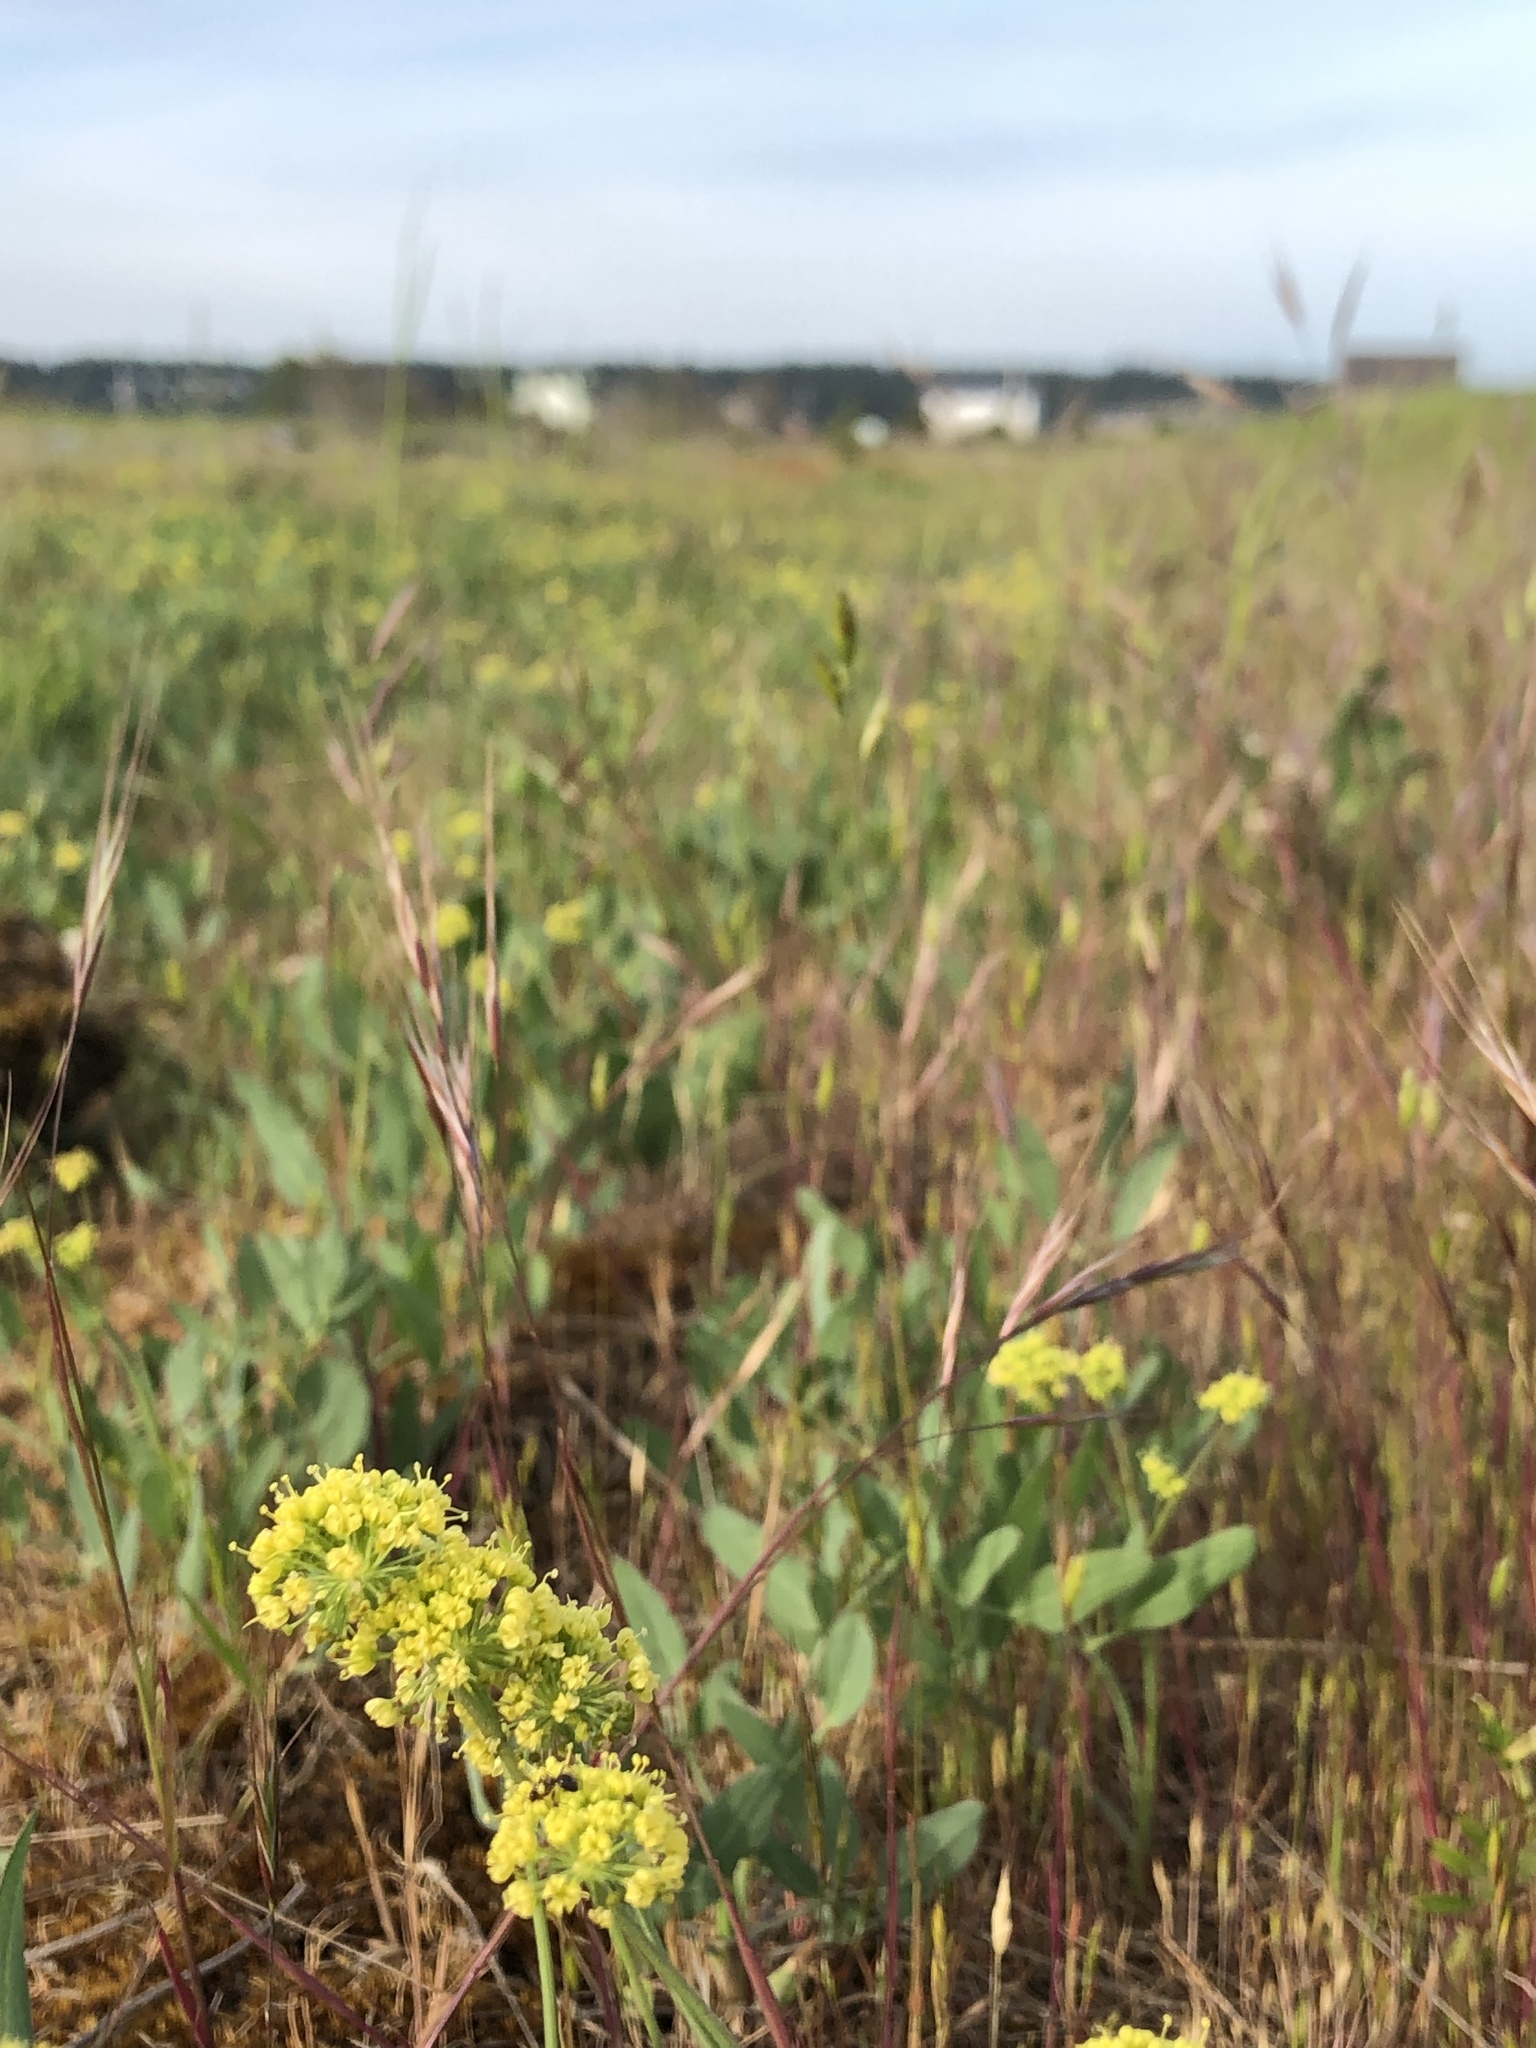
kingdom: Plantae
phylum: Tracheophyta
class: Magnoliopsida
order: Apiales
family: Apiaceae
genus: Lomatium
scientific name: Lomatium nudicaule
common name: Pestle lomatium
